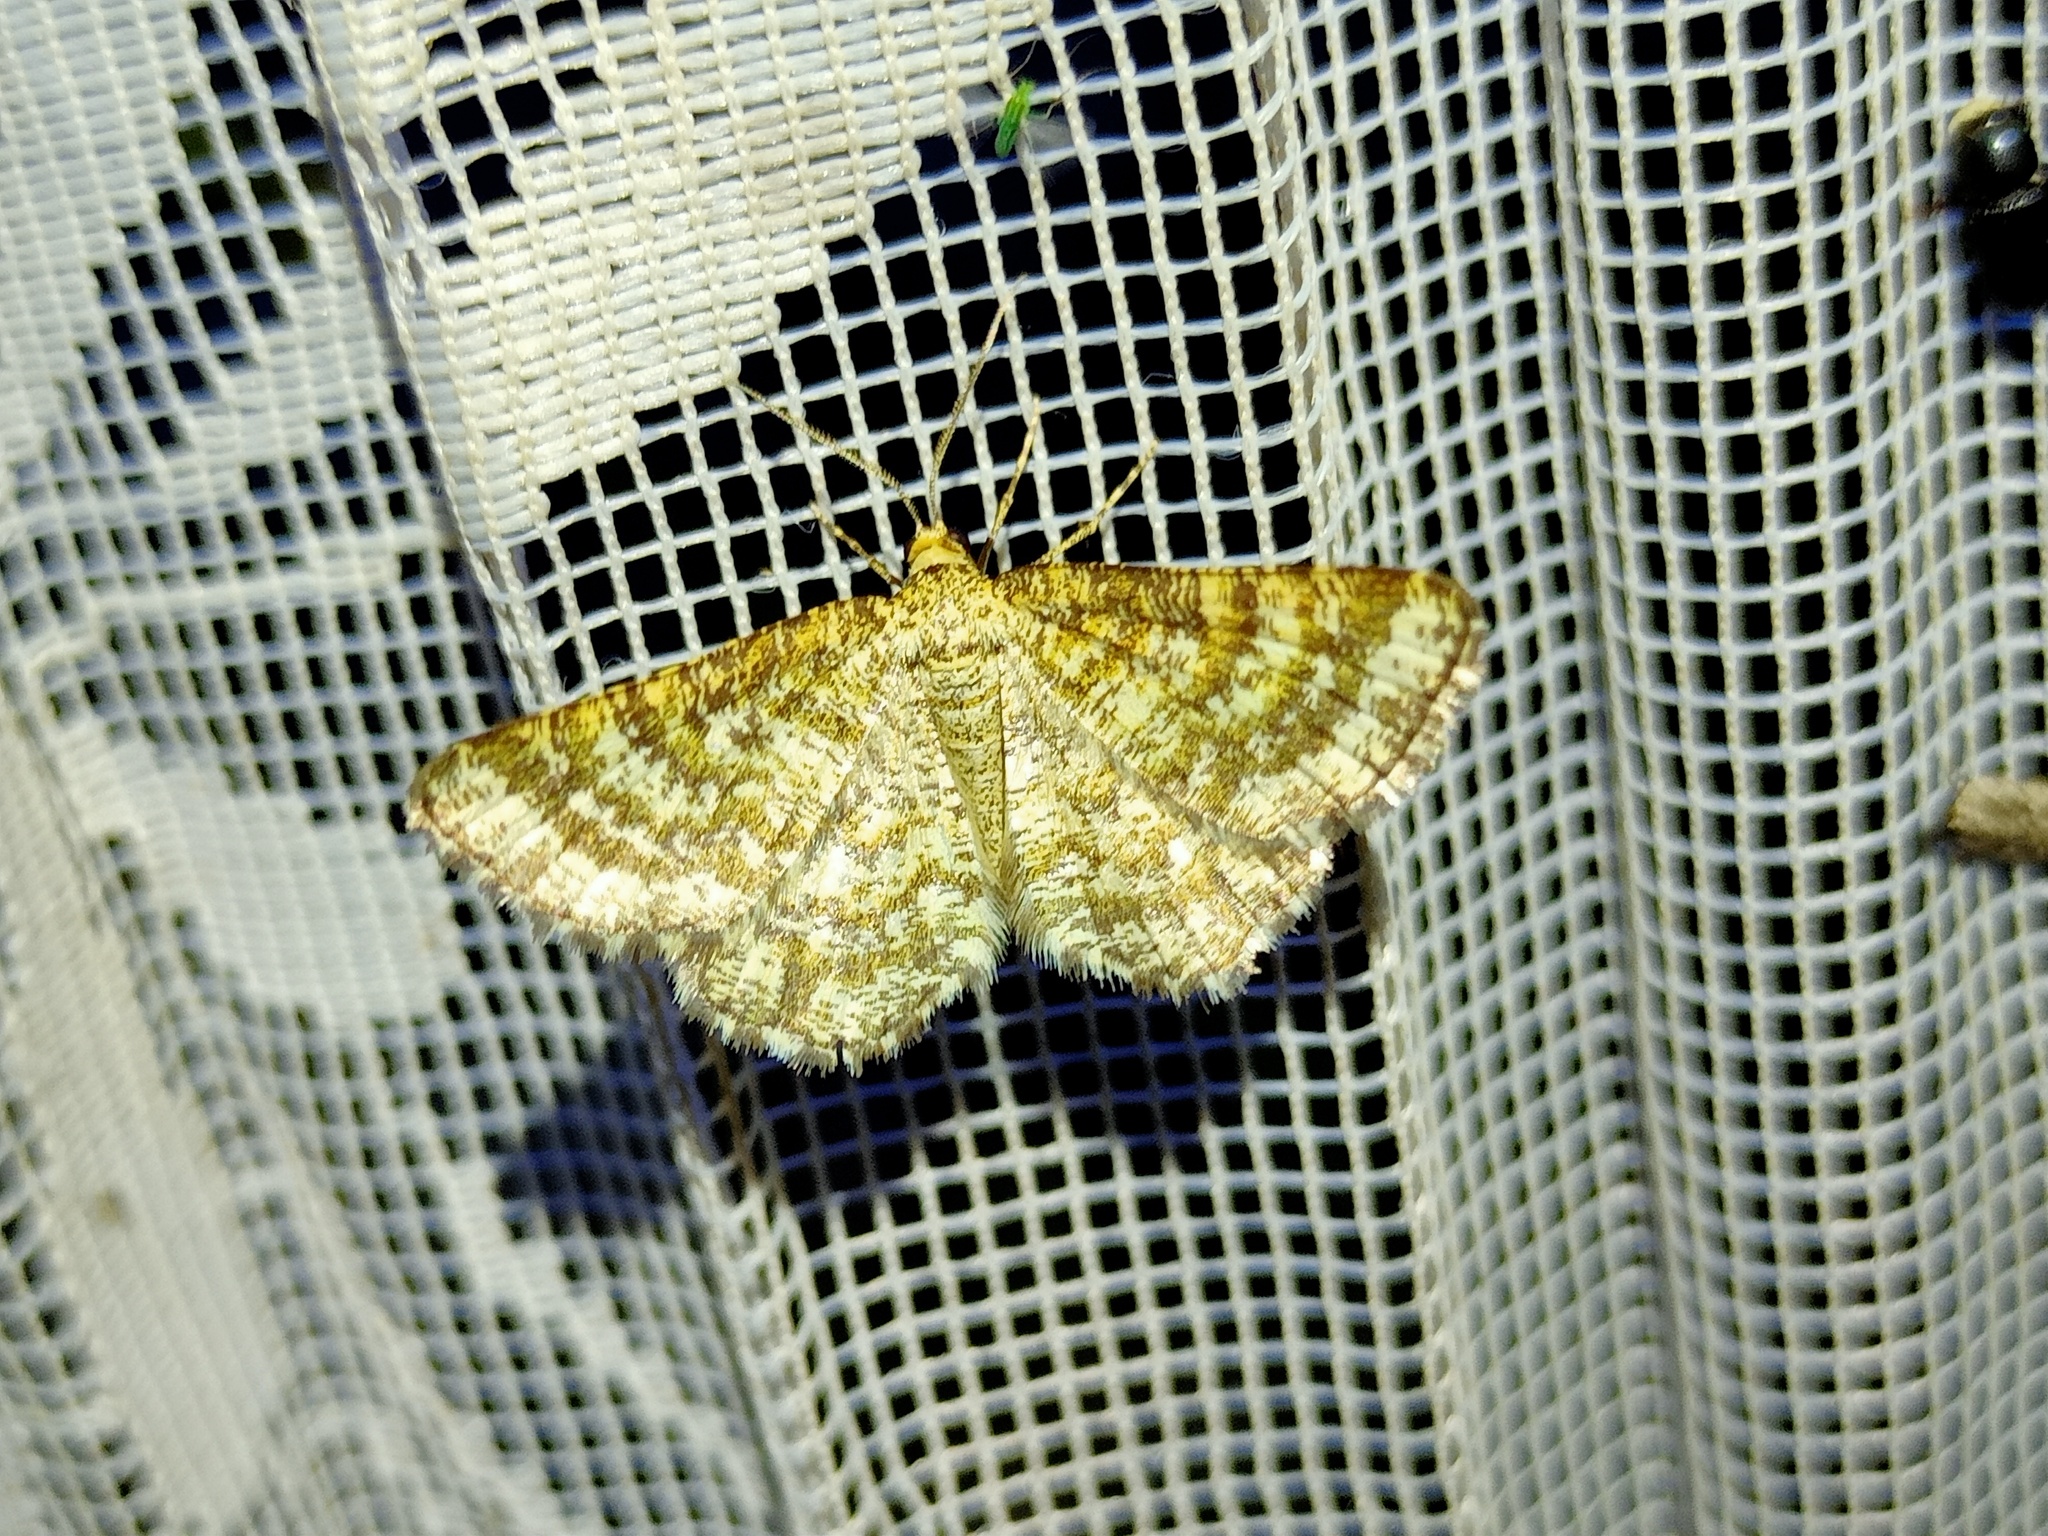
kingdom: Animalia
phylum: Arthropoda
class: Insecta
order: Lepidoptera
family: Geometridae
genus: Heliomata
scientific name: Heliomata glarearia
